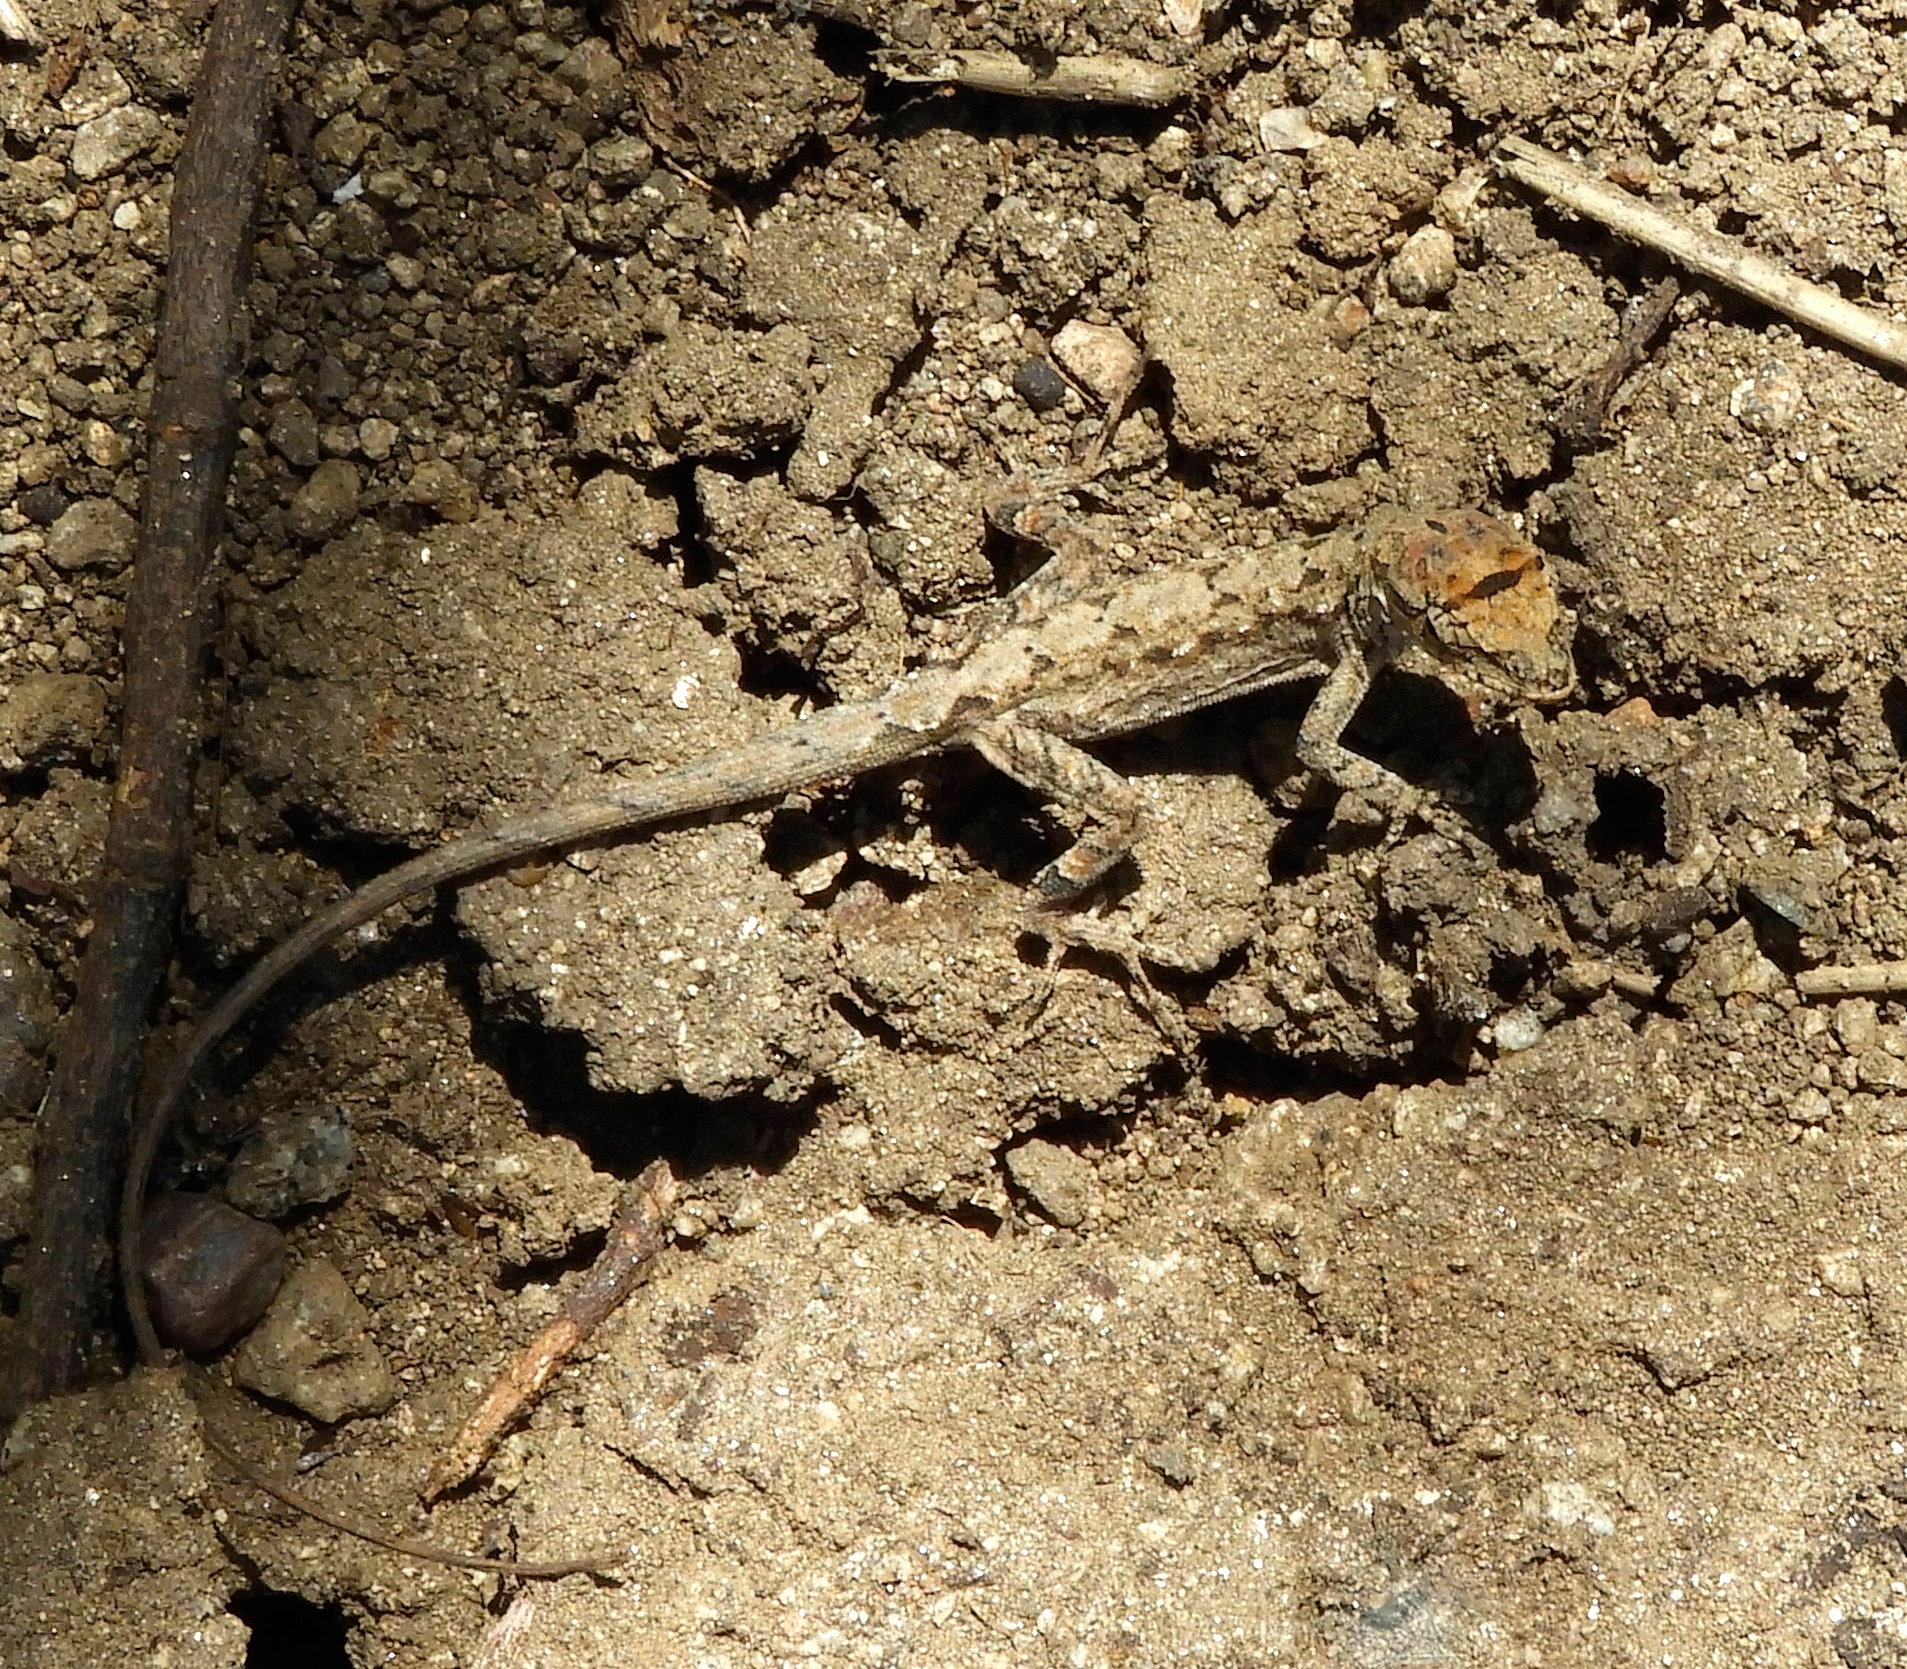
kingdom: Animalia
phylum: Chordata
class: Squamata
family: Dactyloidae
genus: Anolis
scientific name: Anolis nebulosus
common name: Clouded anole
